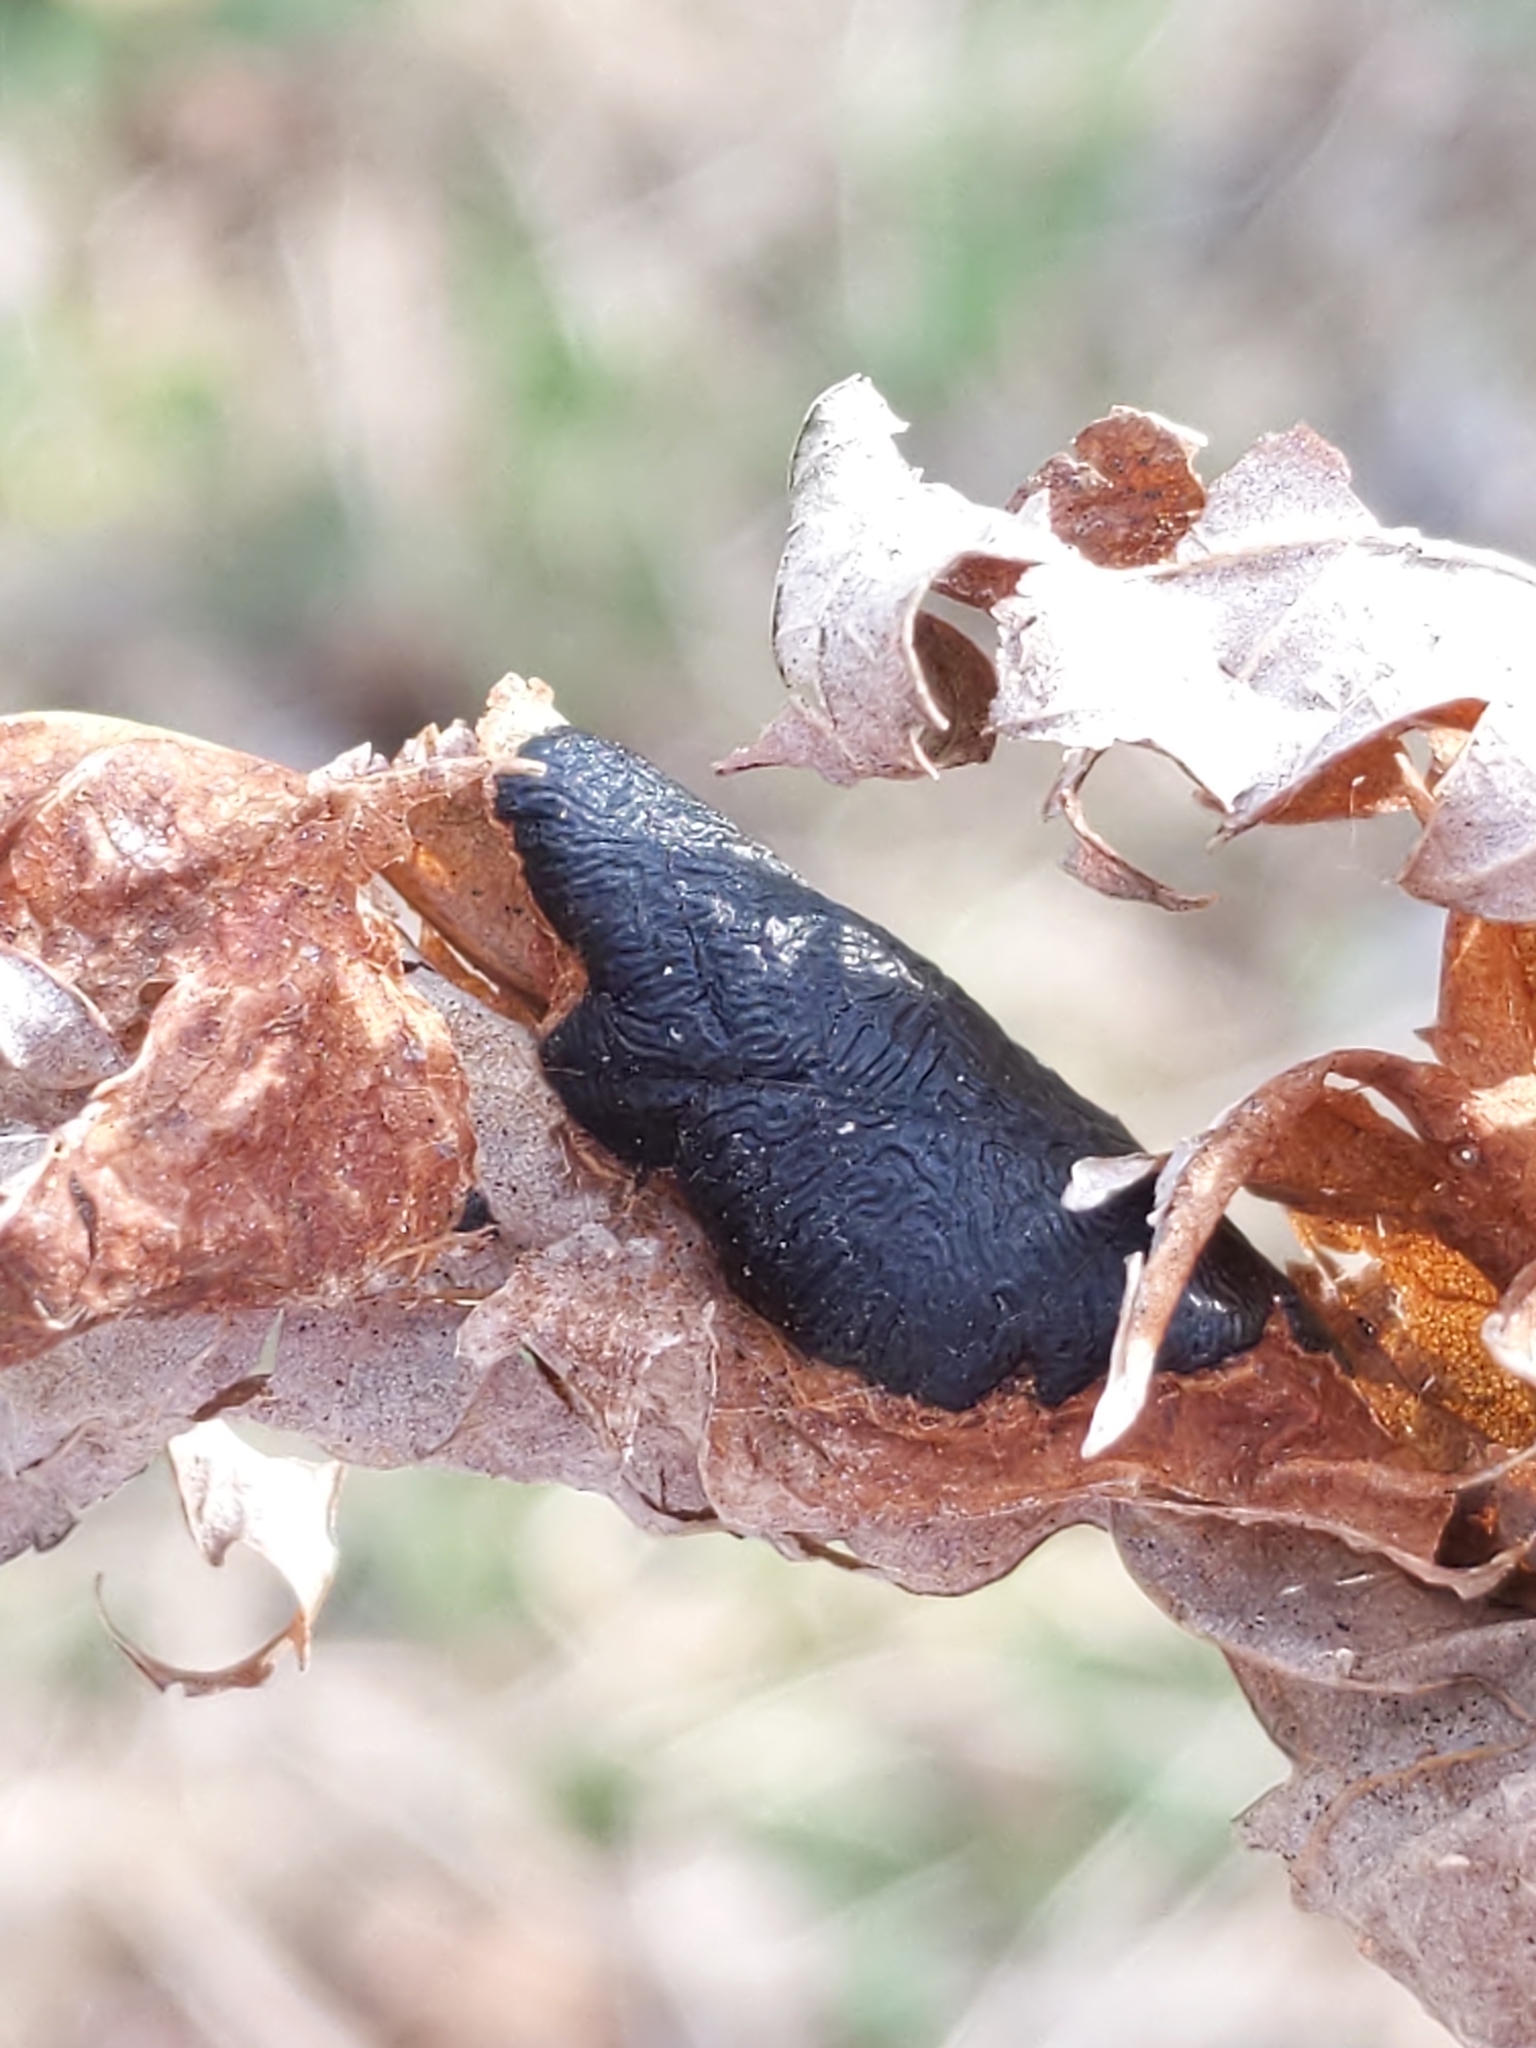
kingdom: Fungi
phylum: Ascomycota
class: Leotiomycetes
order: Rhytismatales
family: Rhytismataceae
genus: Rhytisma
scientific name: Rhytisma americanum
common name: American tar spot
